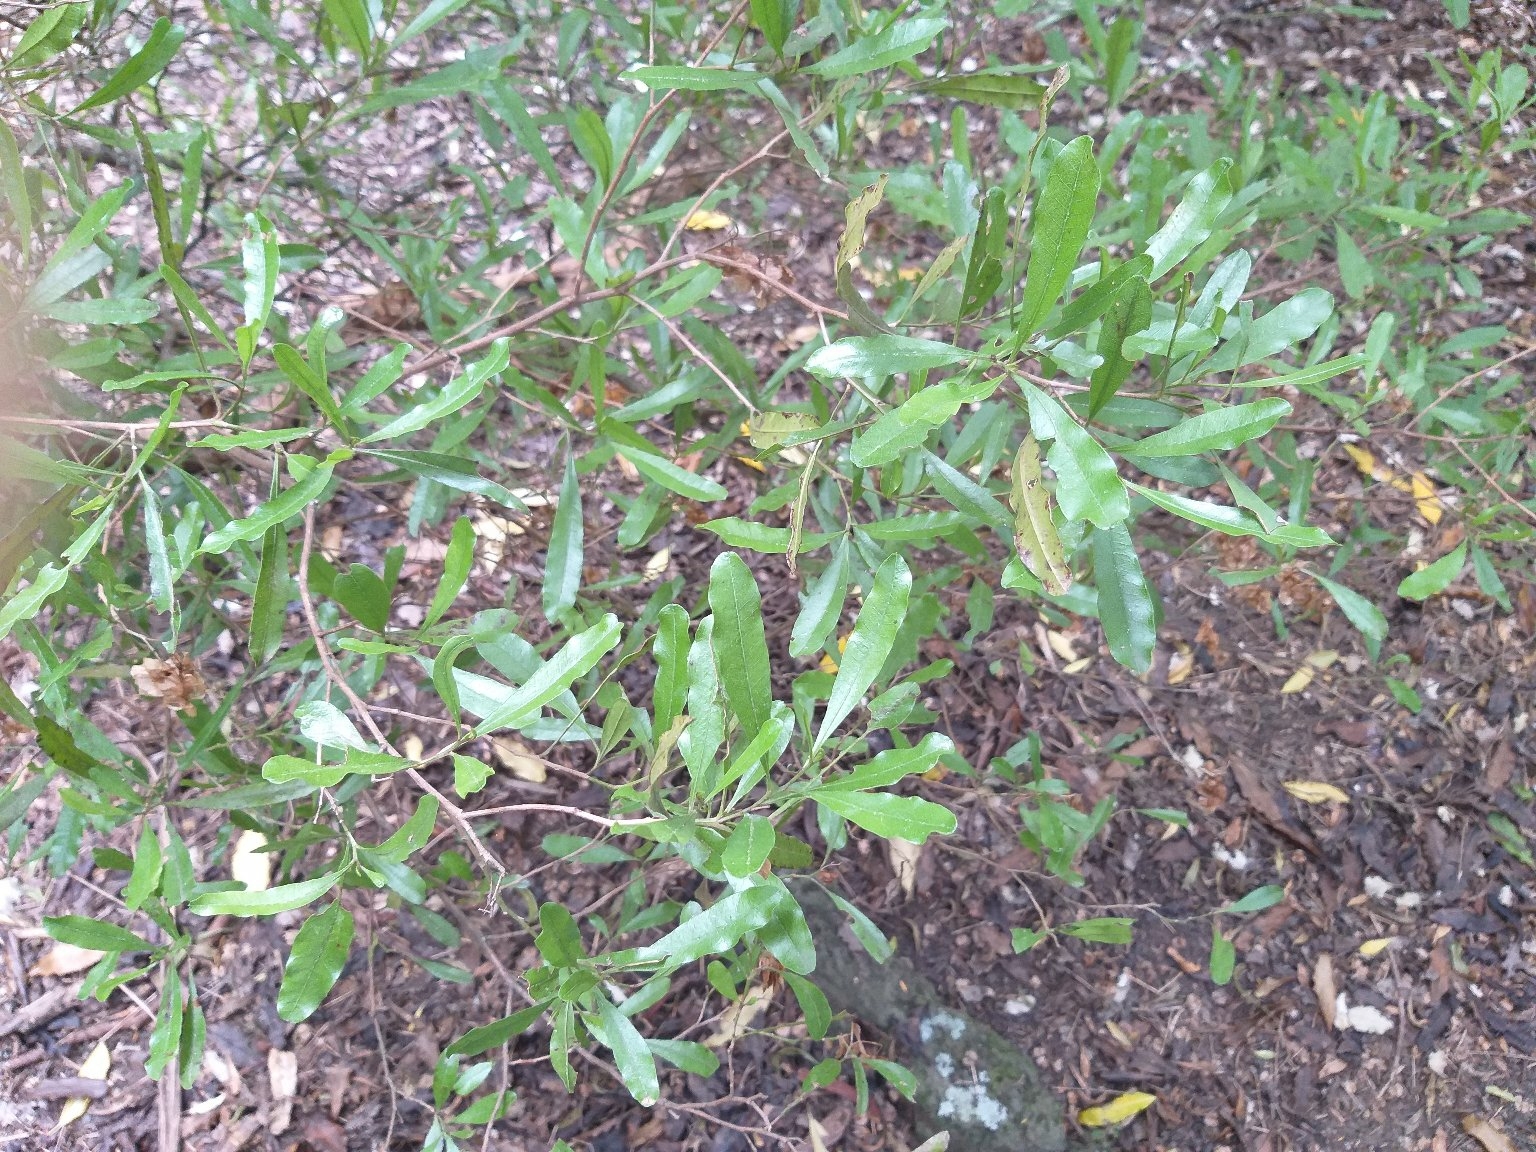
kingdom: Plantae
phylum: Tracheophyta
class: Magnoliopsida
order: Sapindales
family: Sapindaceae
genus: Dodonaea
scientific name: Dodonaea viscosa
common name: Hopbush
